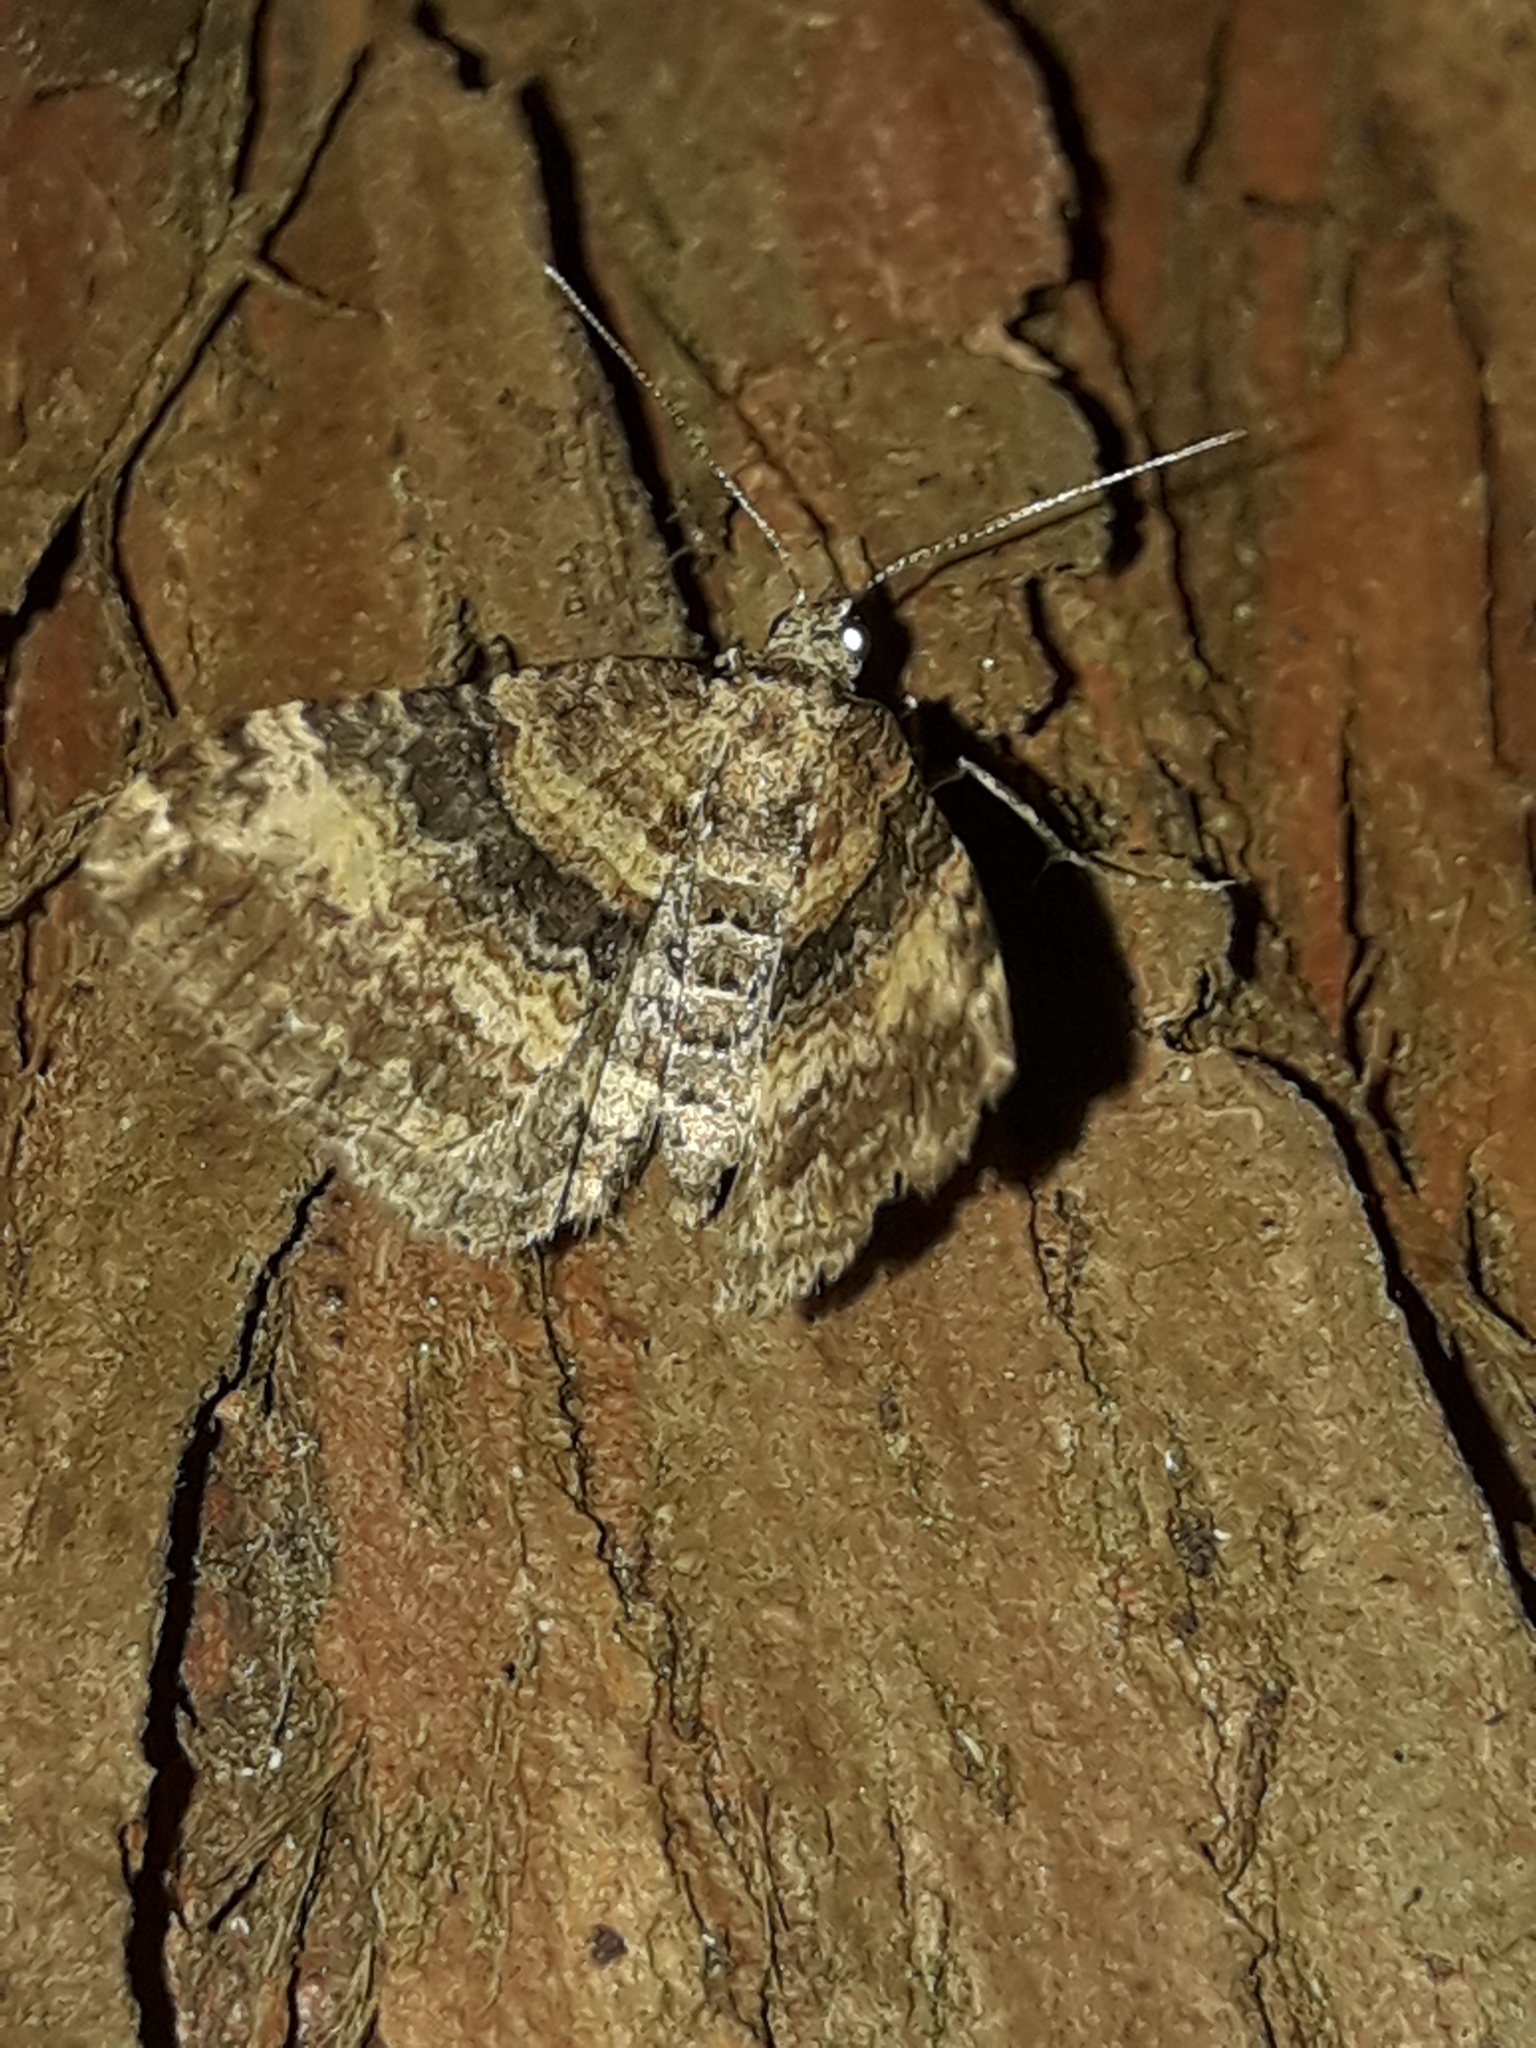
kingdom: Animalia
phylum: Arthropoda
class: Insecta
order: Lepidoptera
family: Geometridae
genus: Epyaxa
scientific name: Epyaxa lucidata
